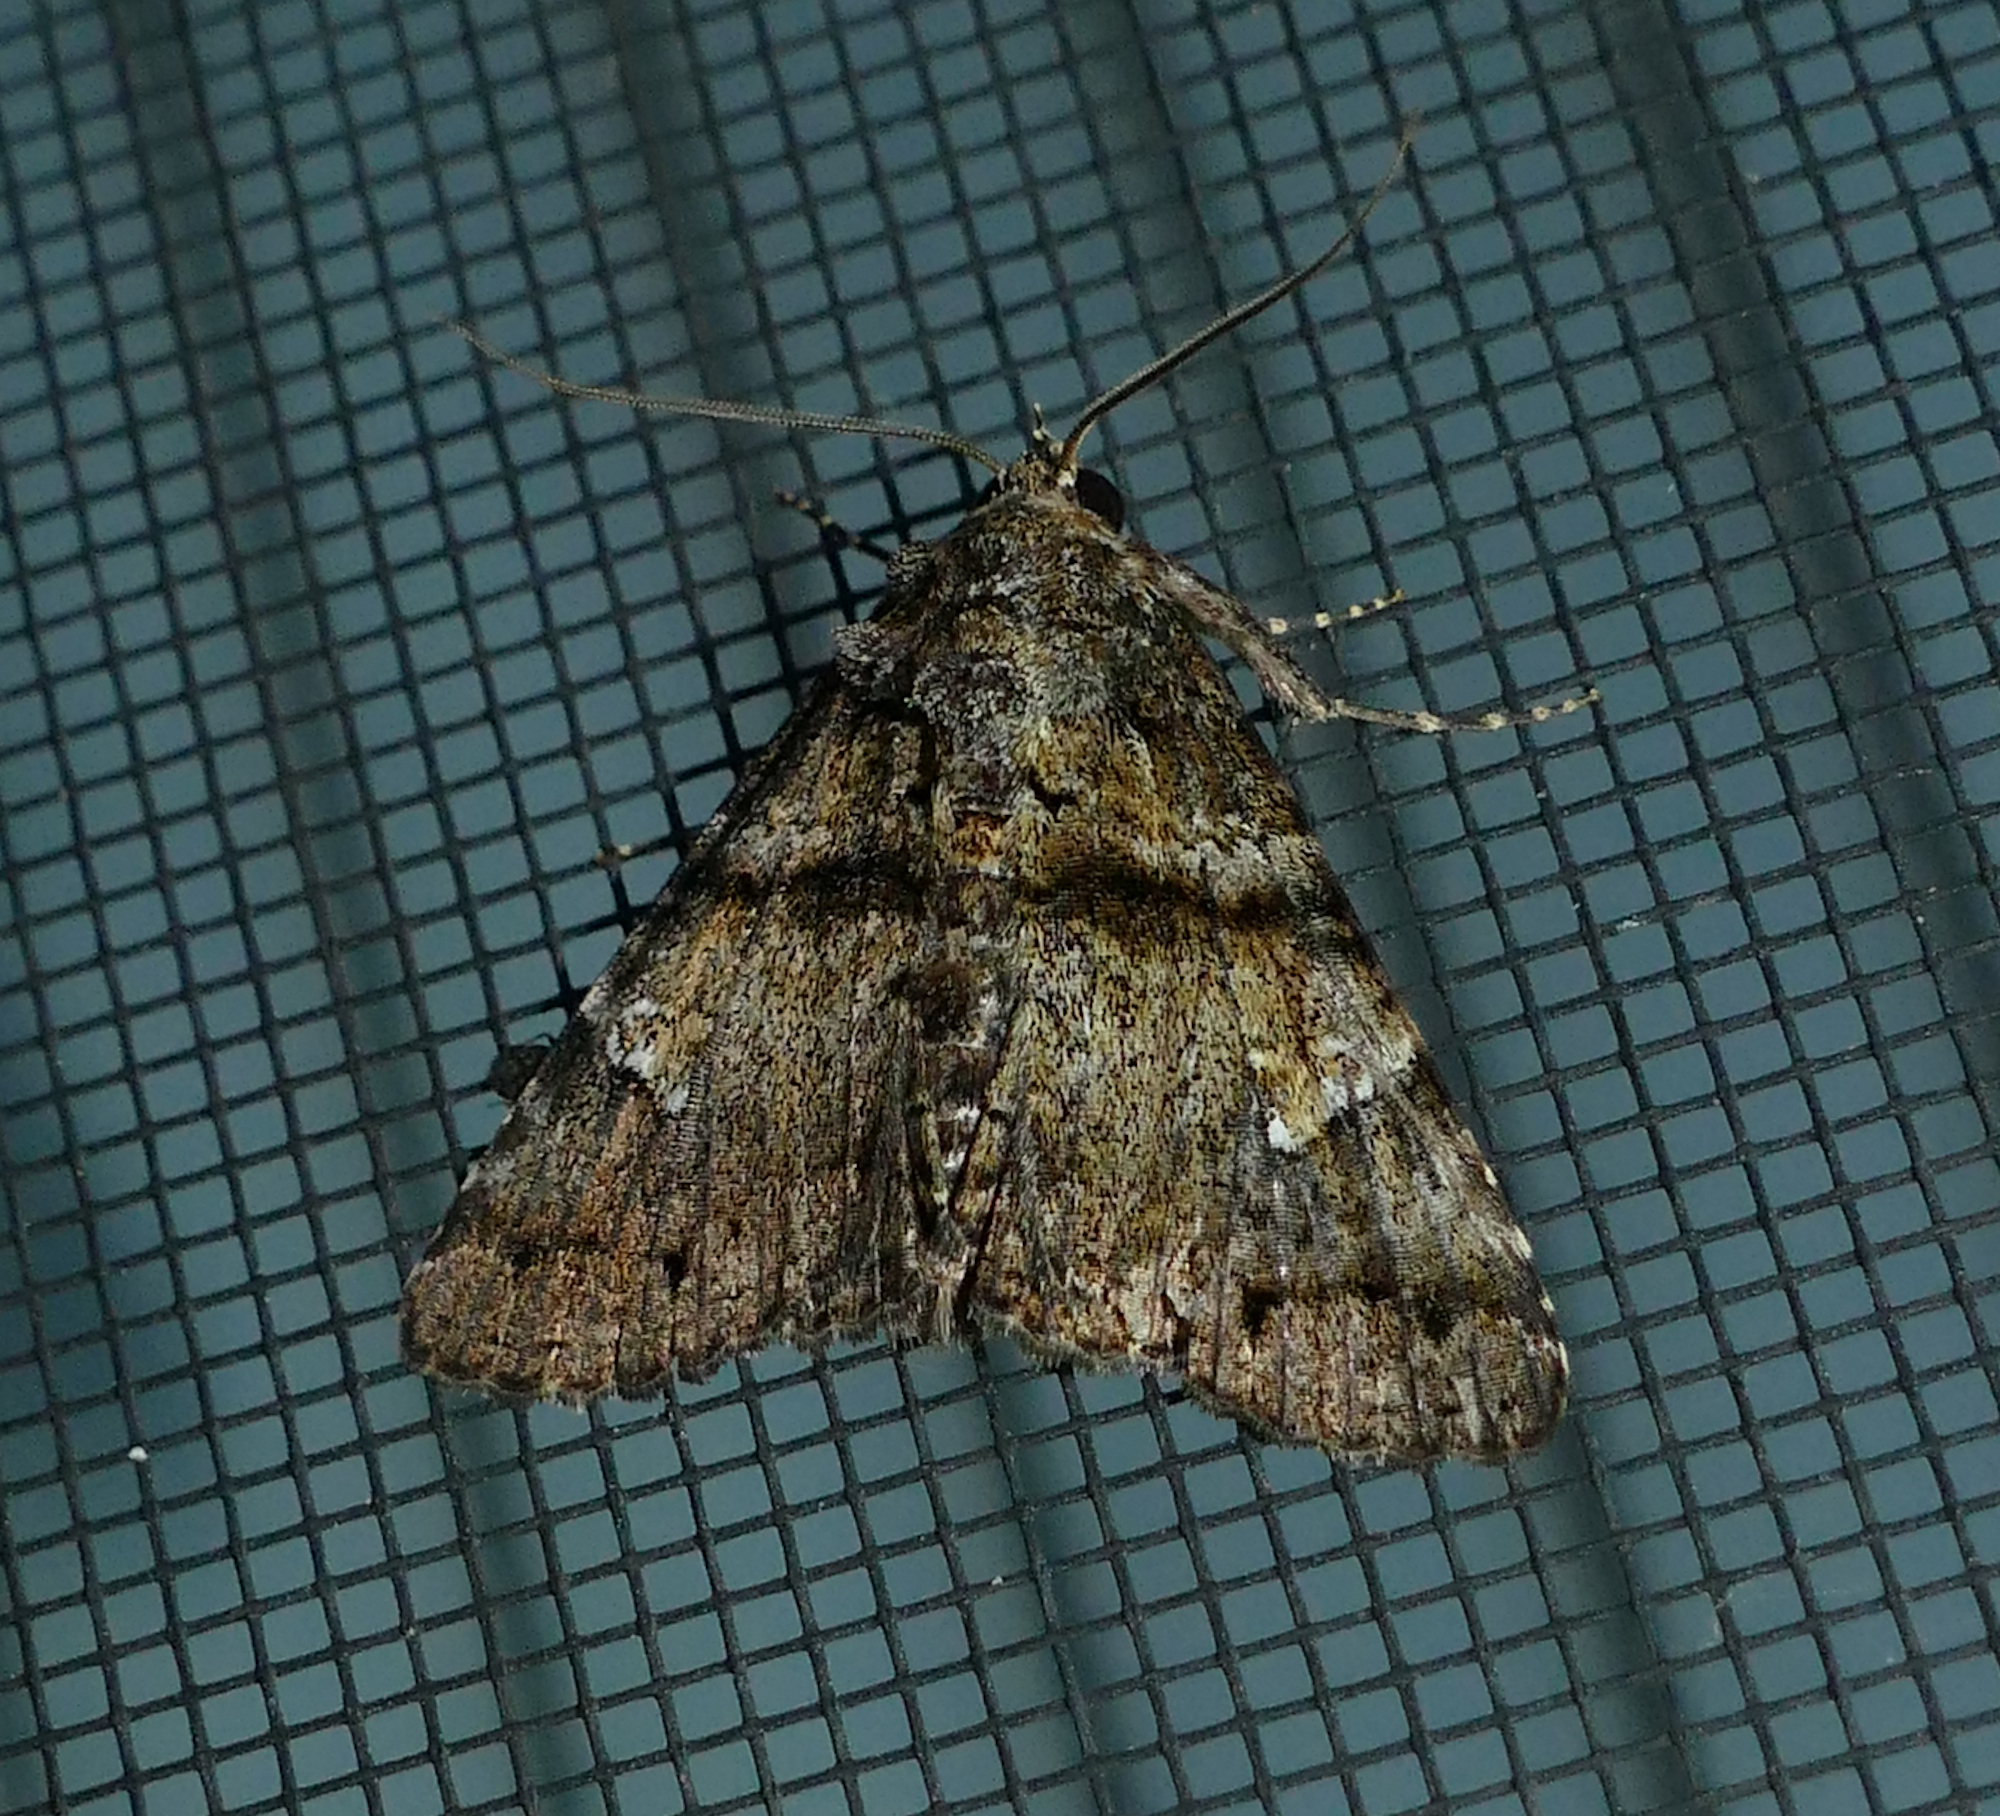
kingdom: Animalia
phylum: Arthropoda
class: Insecta
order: Lepidoptera
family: Erebidae
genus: Metria
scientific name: Metria amella
